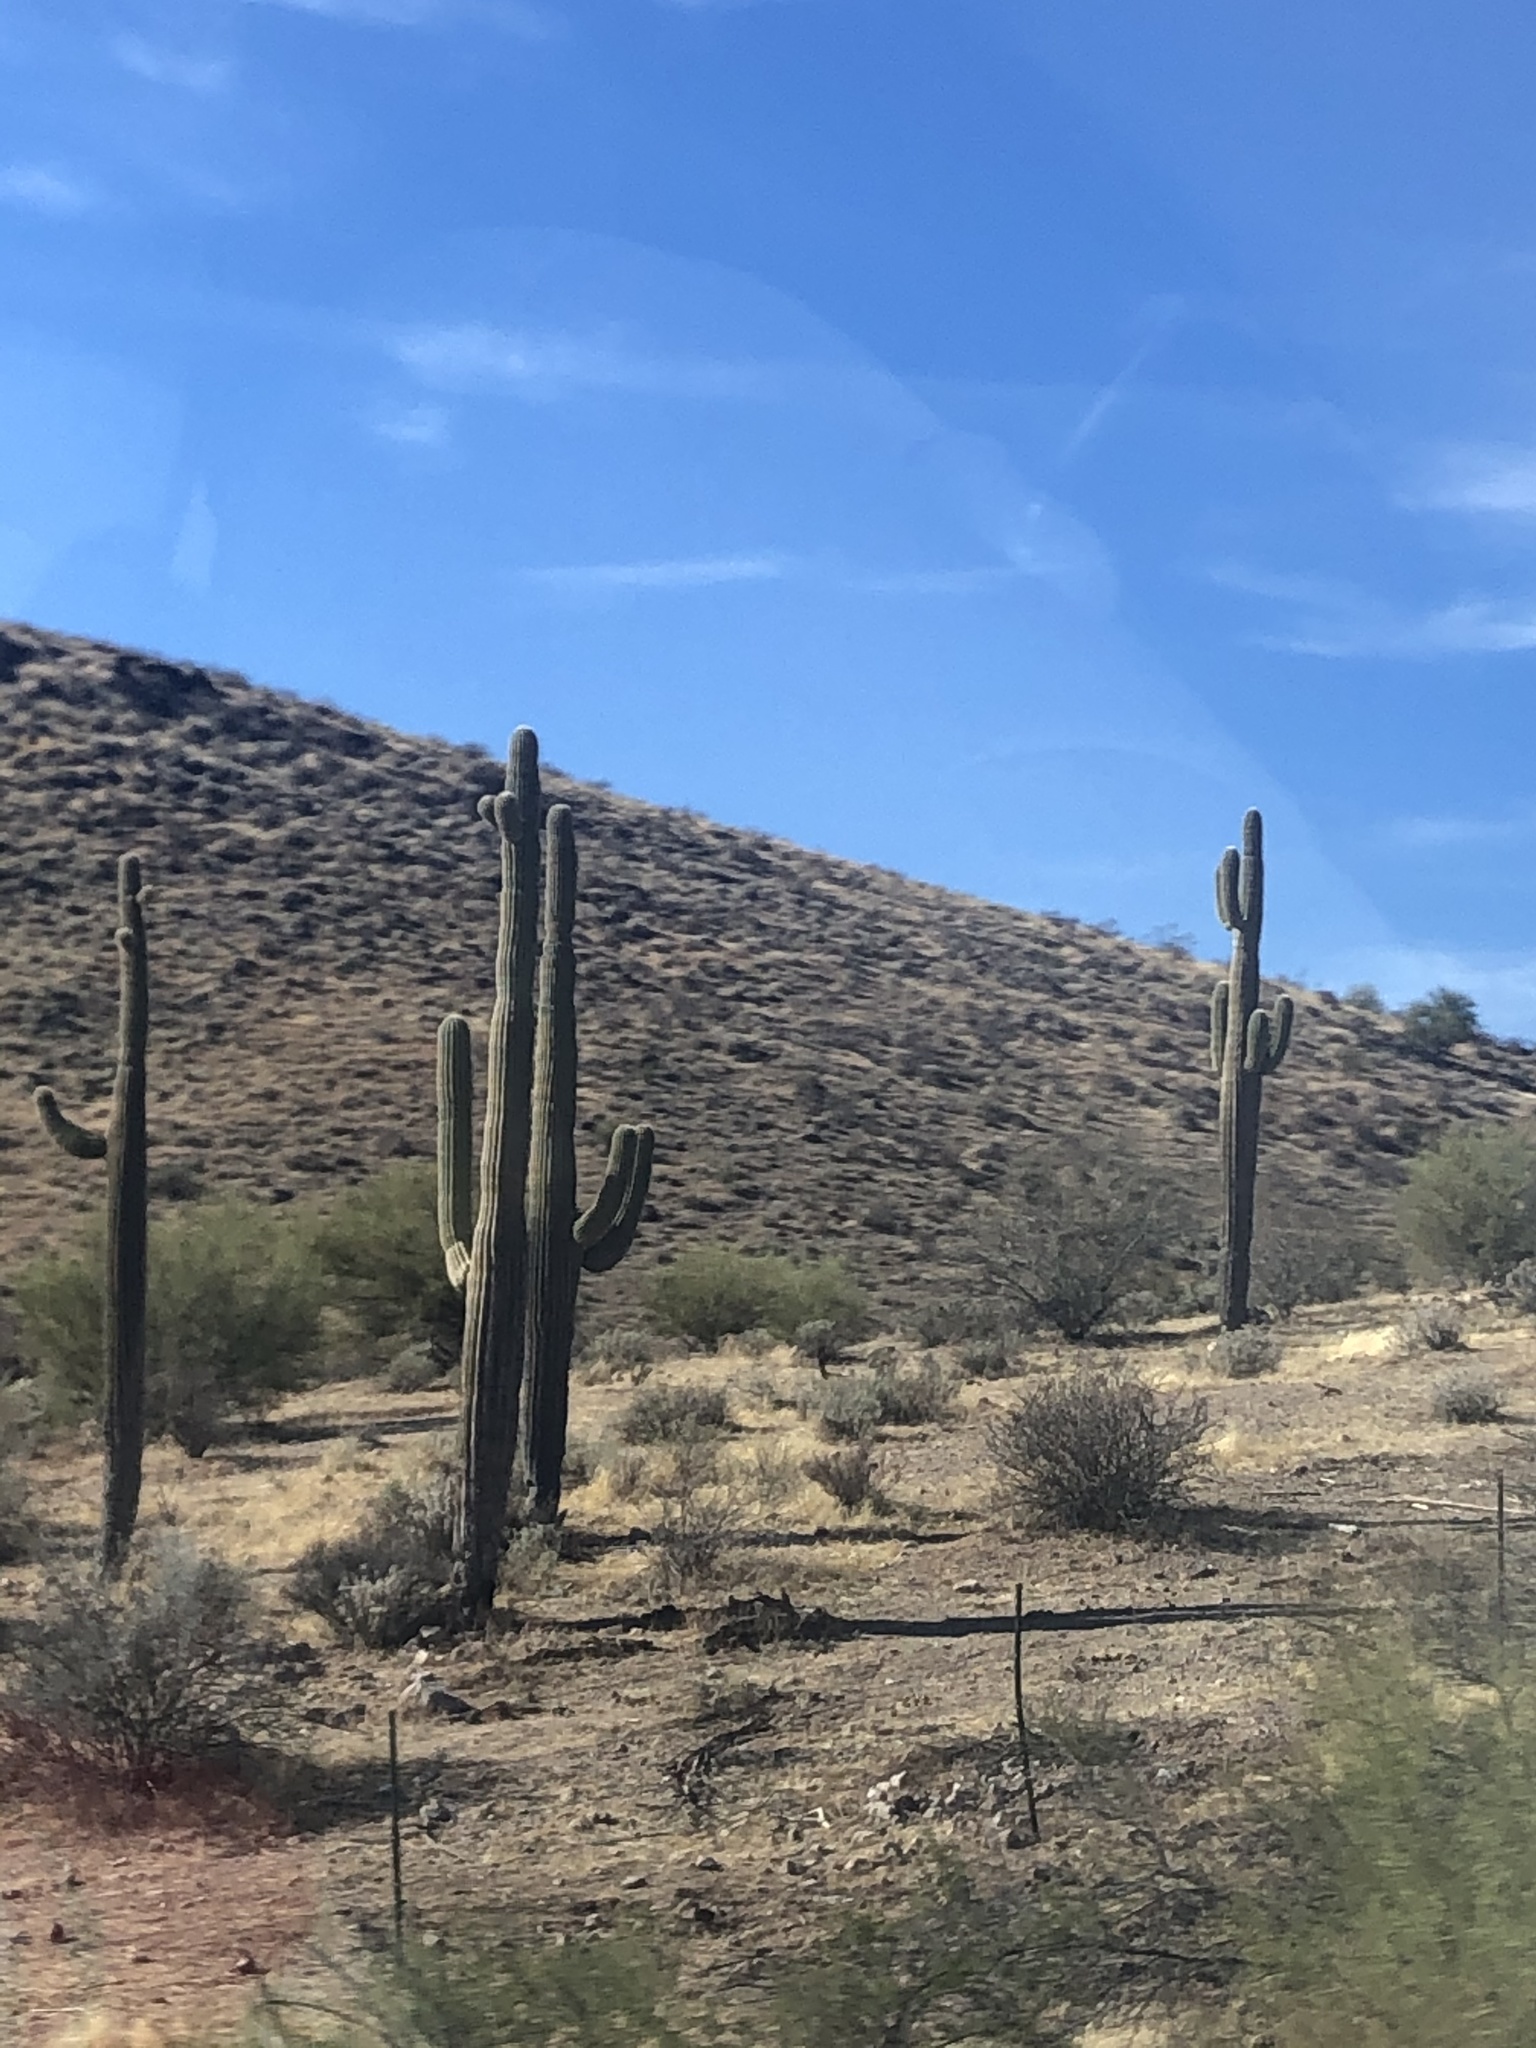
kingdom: Plantae
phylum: Tracheophyta
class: Magnoliopsida
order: Caryophyllales
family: Cactaceae
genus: Carnegiea
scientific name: Carnegiea gigantea
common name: Saguaro
